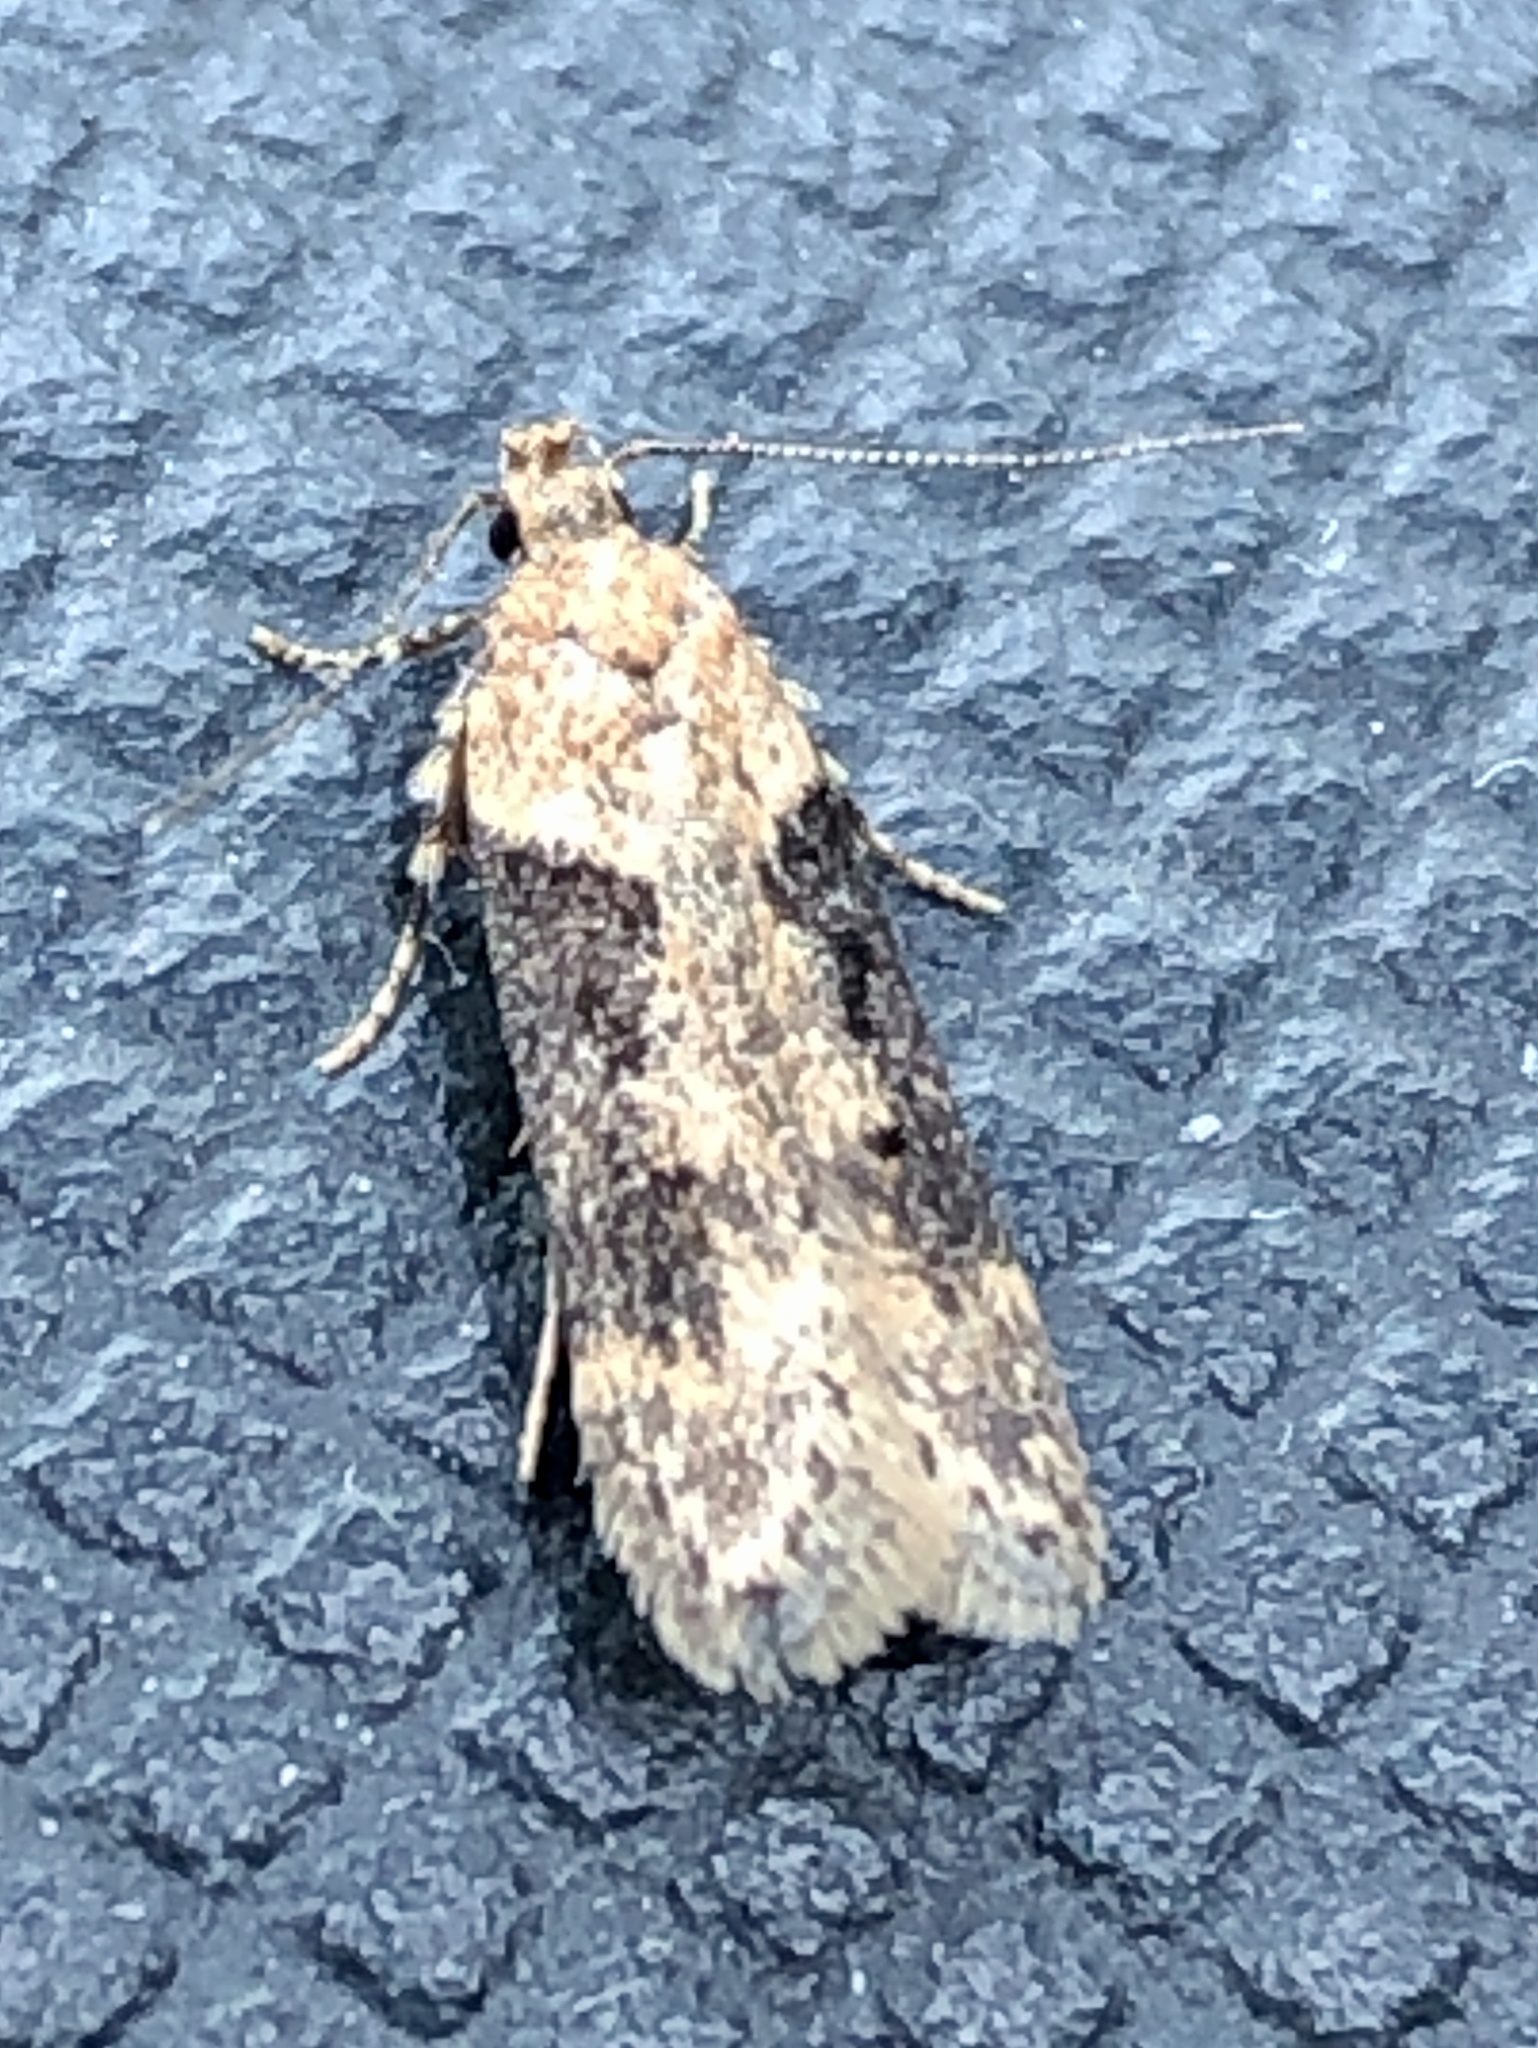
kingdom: Animalia
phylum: Arthropoda
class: Insecta
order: Lepidoptera
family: Gelechiidae
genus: Chionodes
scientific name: Chionodes mediofuscella
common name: Black-smudged chionodes moth
